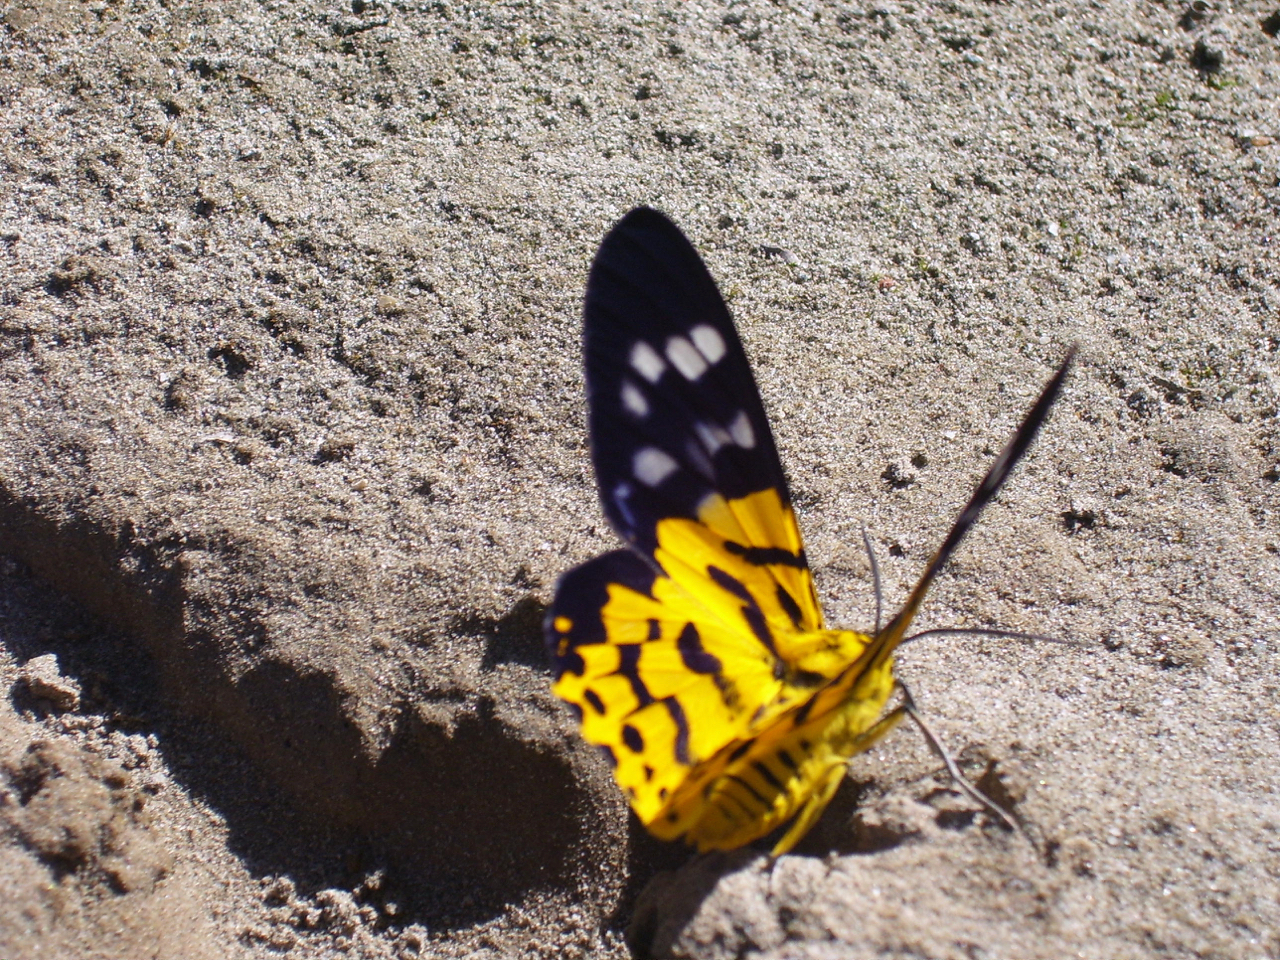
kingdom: Animalia
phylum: Arthropoda
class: Insecta
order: Lepidoptera
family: Geometridae
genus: Dysphania
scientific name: Dysphania militaris
